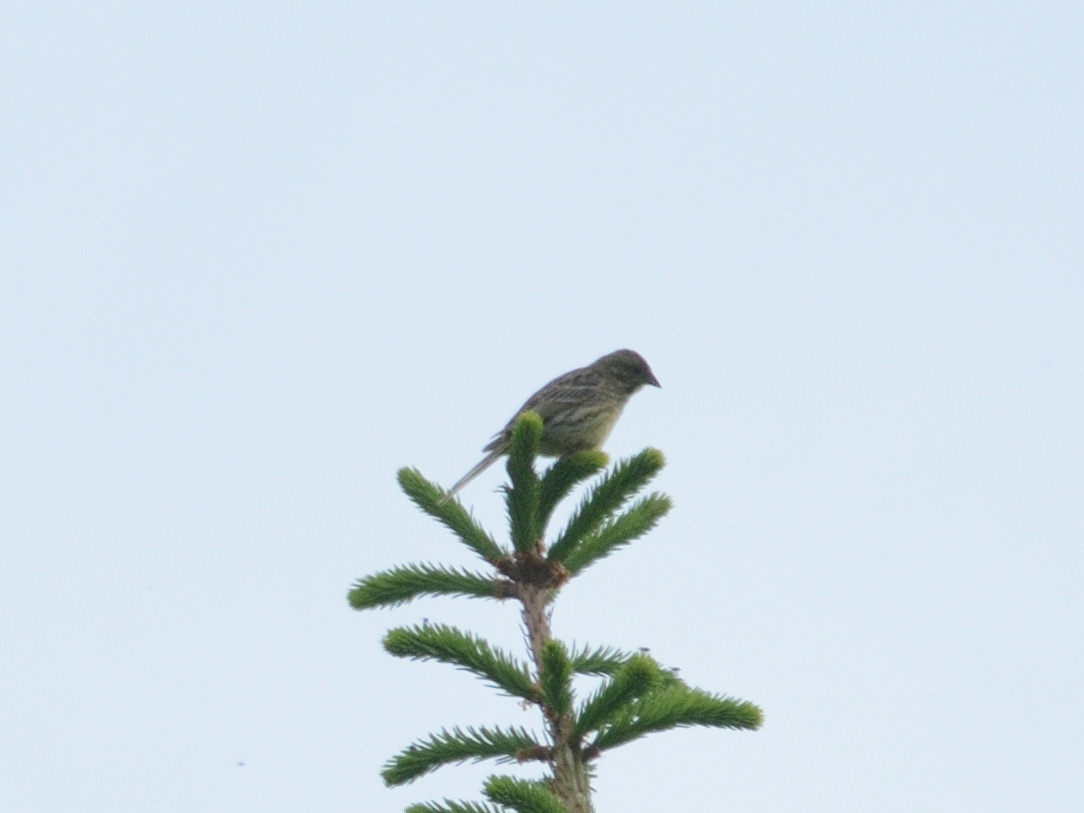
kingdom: Animalia
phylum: Chordata
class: Aves
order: Passeriformes
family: Emberizidae
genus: Emberiza
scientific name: Emberiza citrinella
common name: Yellowhammer
